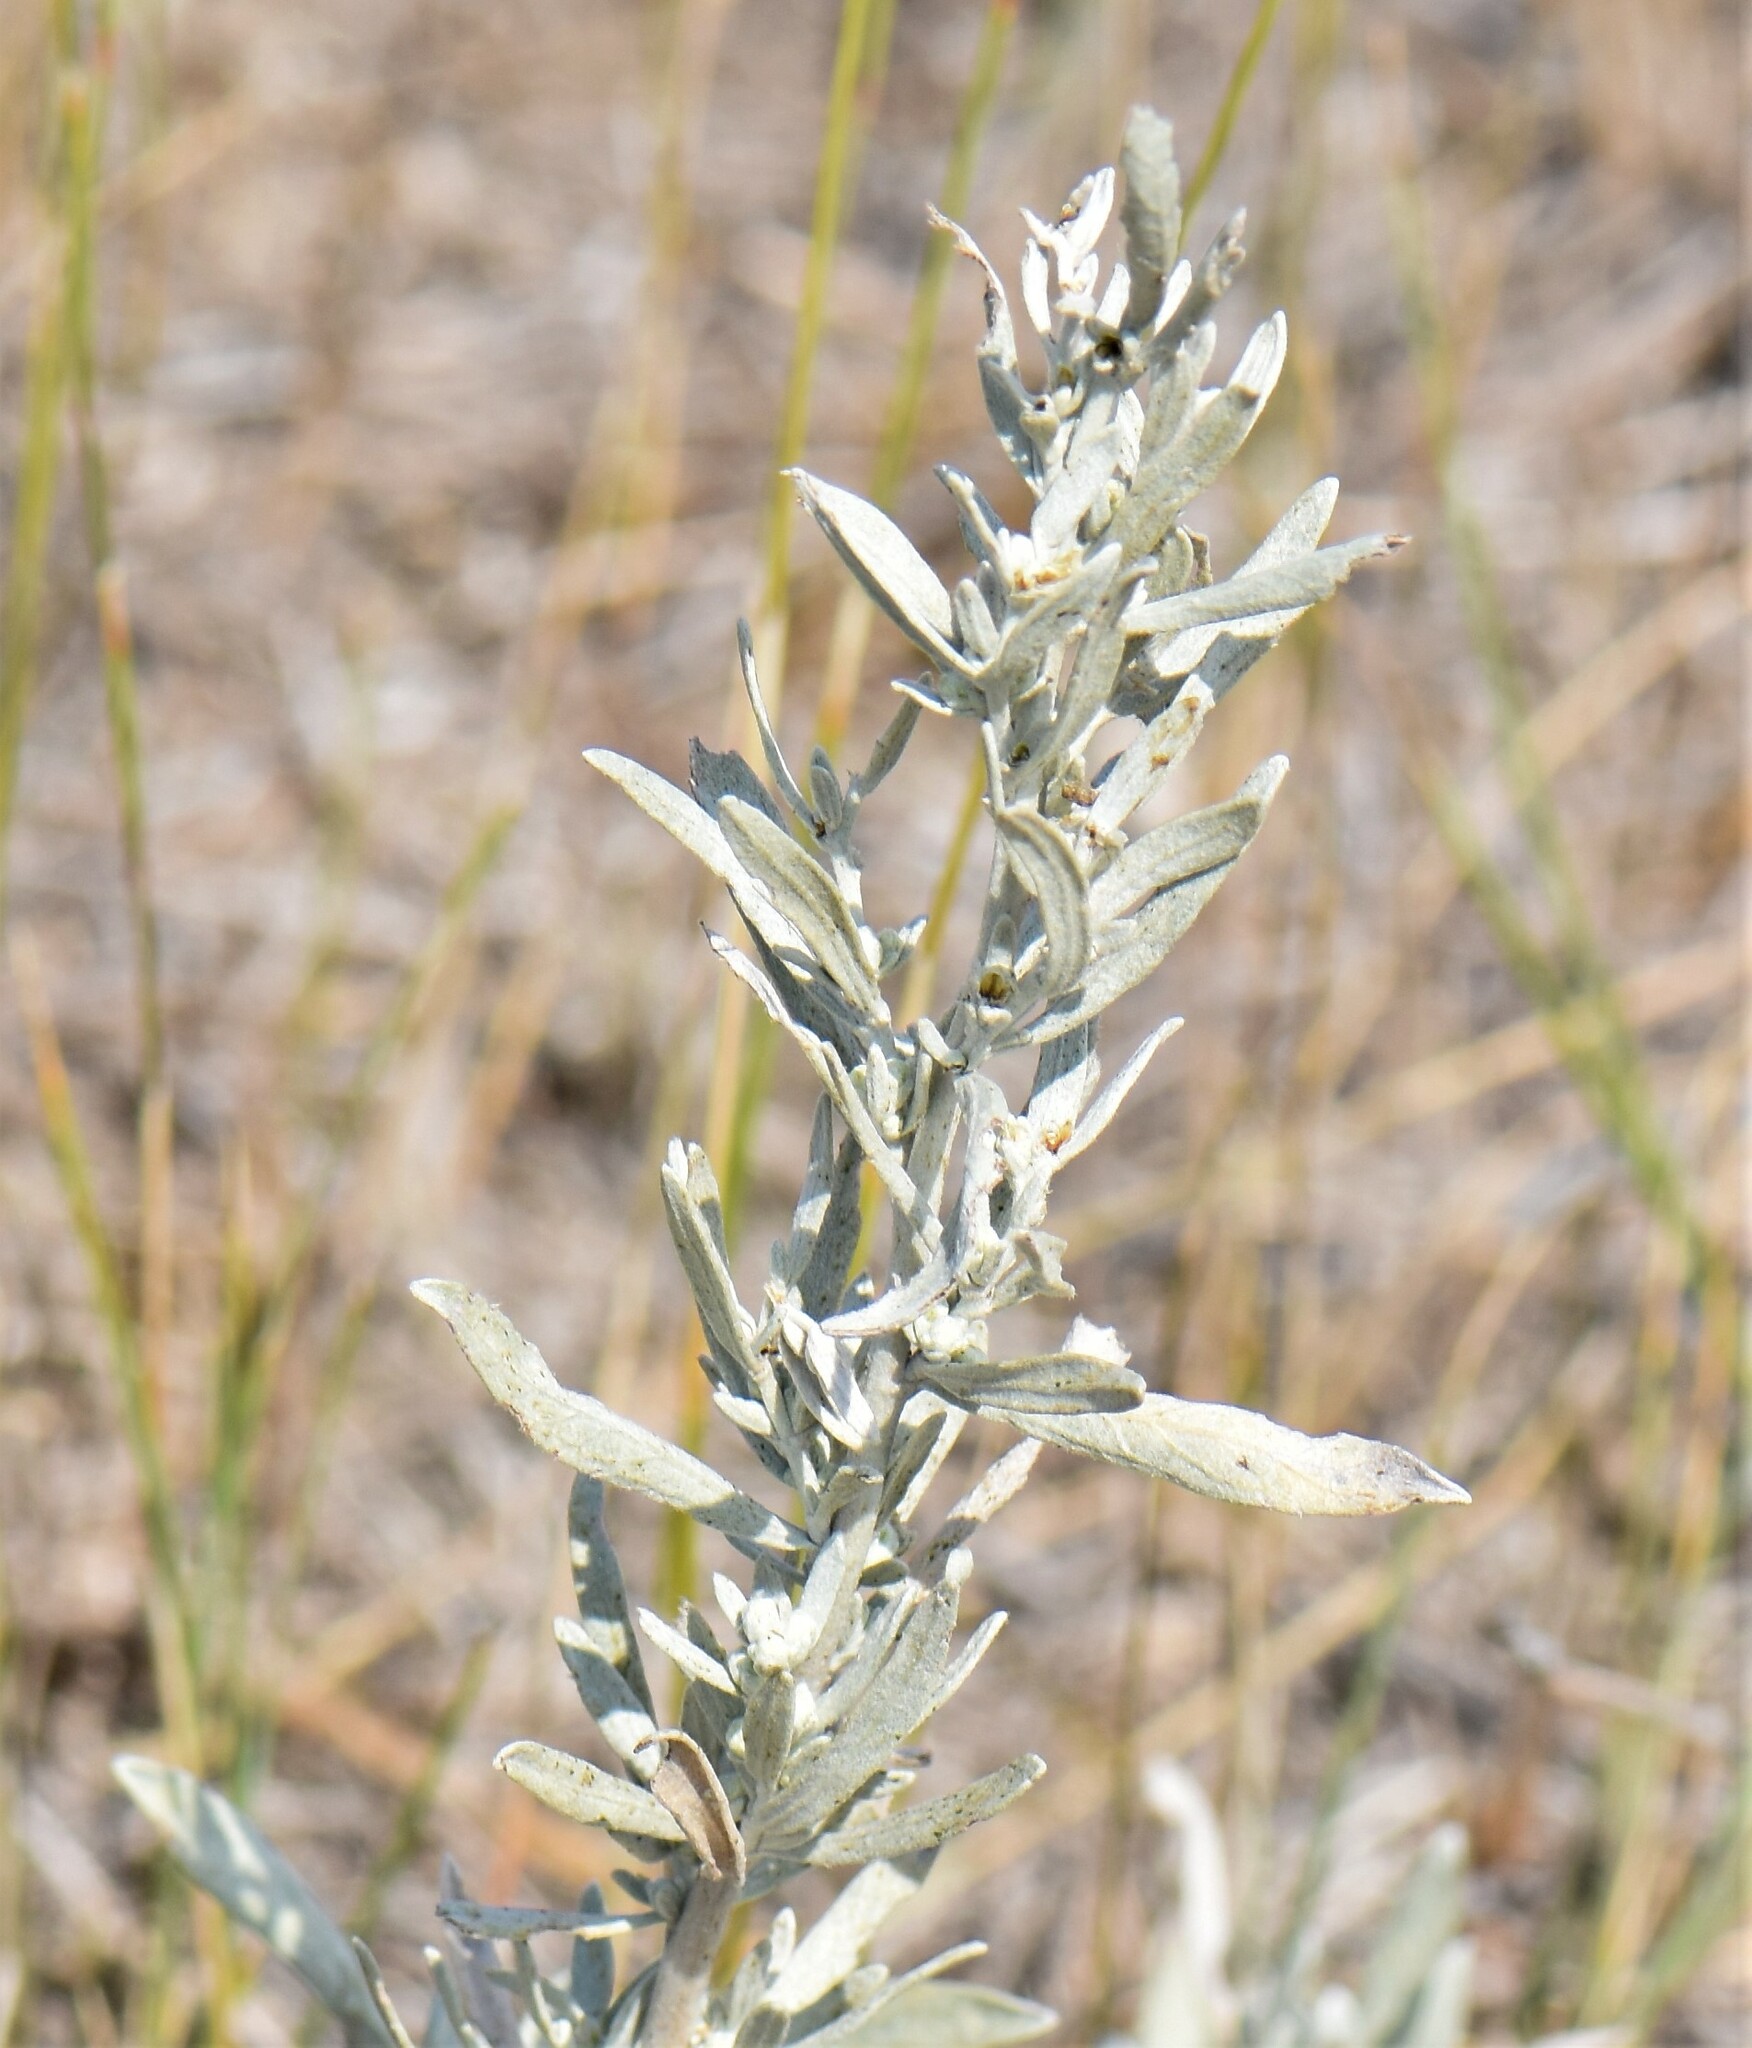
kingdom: Plantae
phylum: Tracheophyta
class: Magnoliopsida
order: Asterales
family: Asteraceae
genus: Artemisia
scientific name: Artemisia cana
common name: Silver sagebrush
